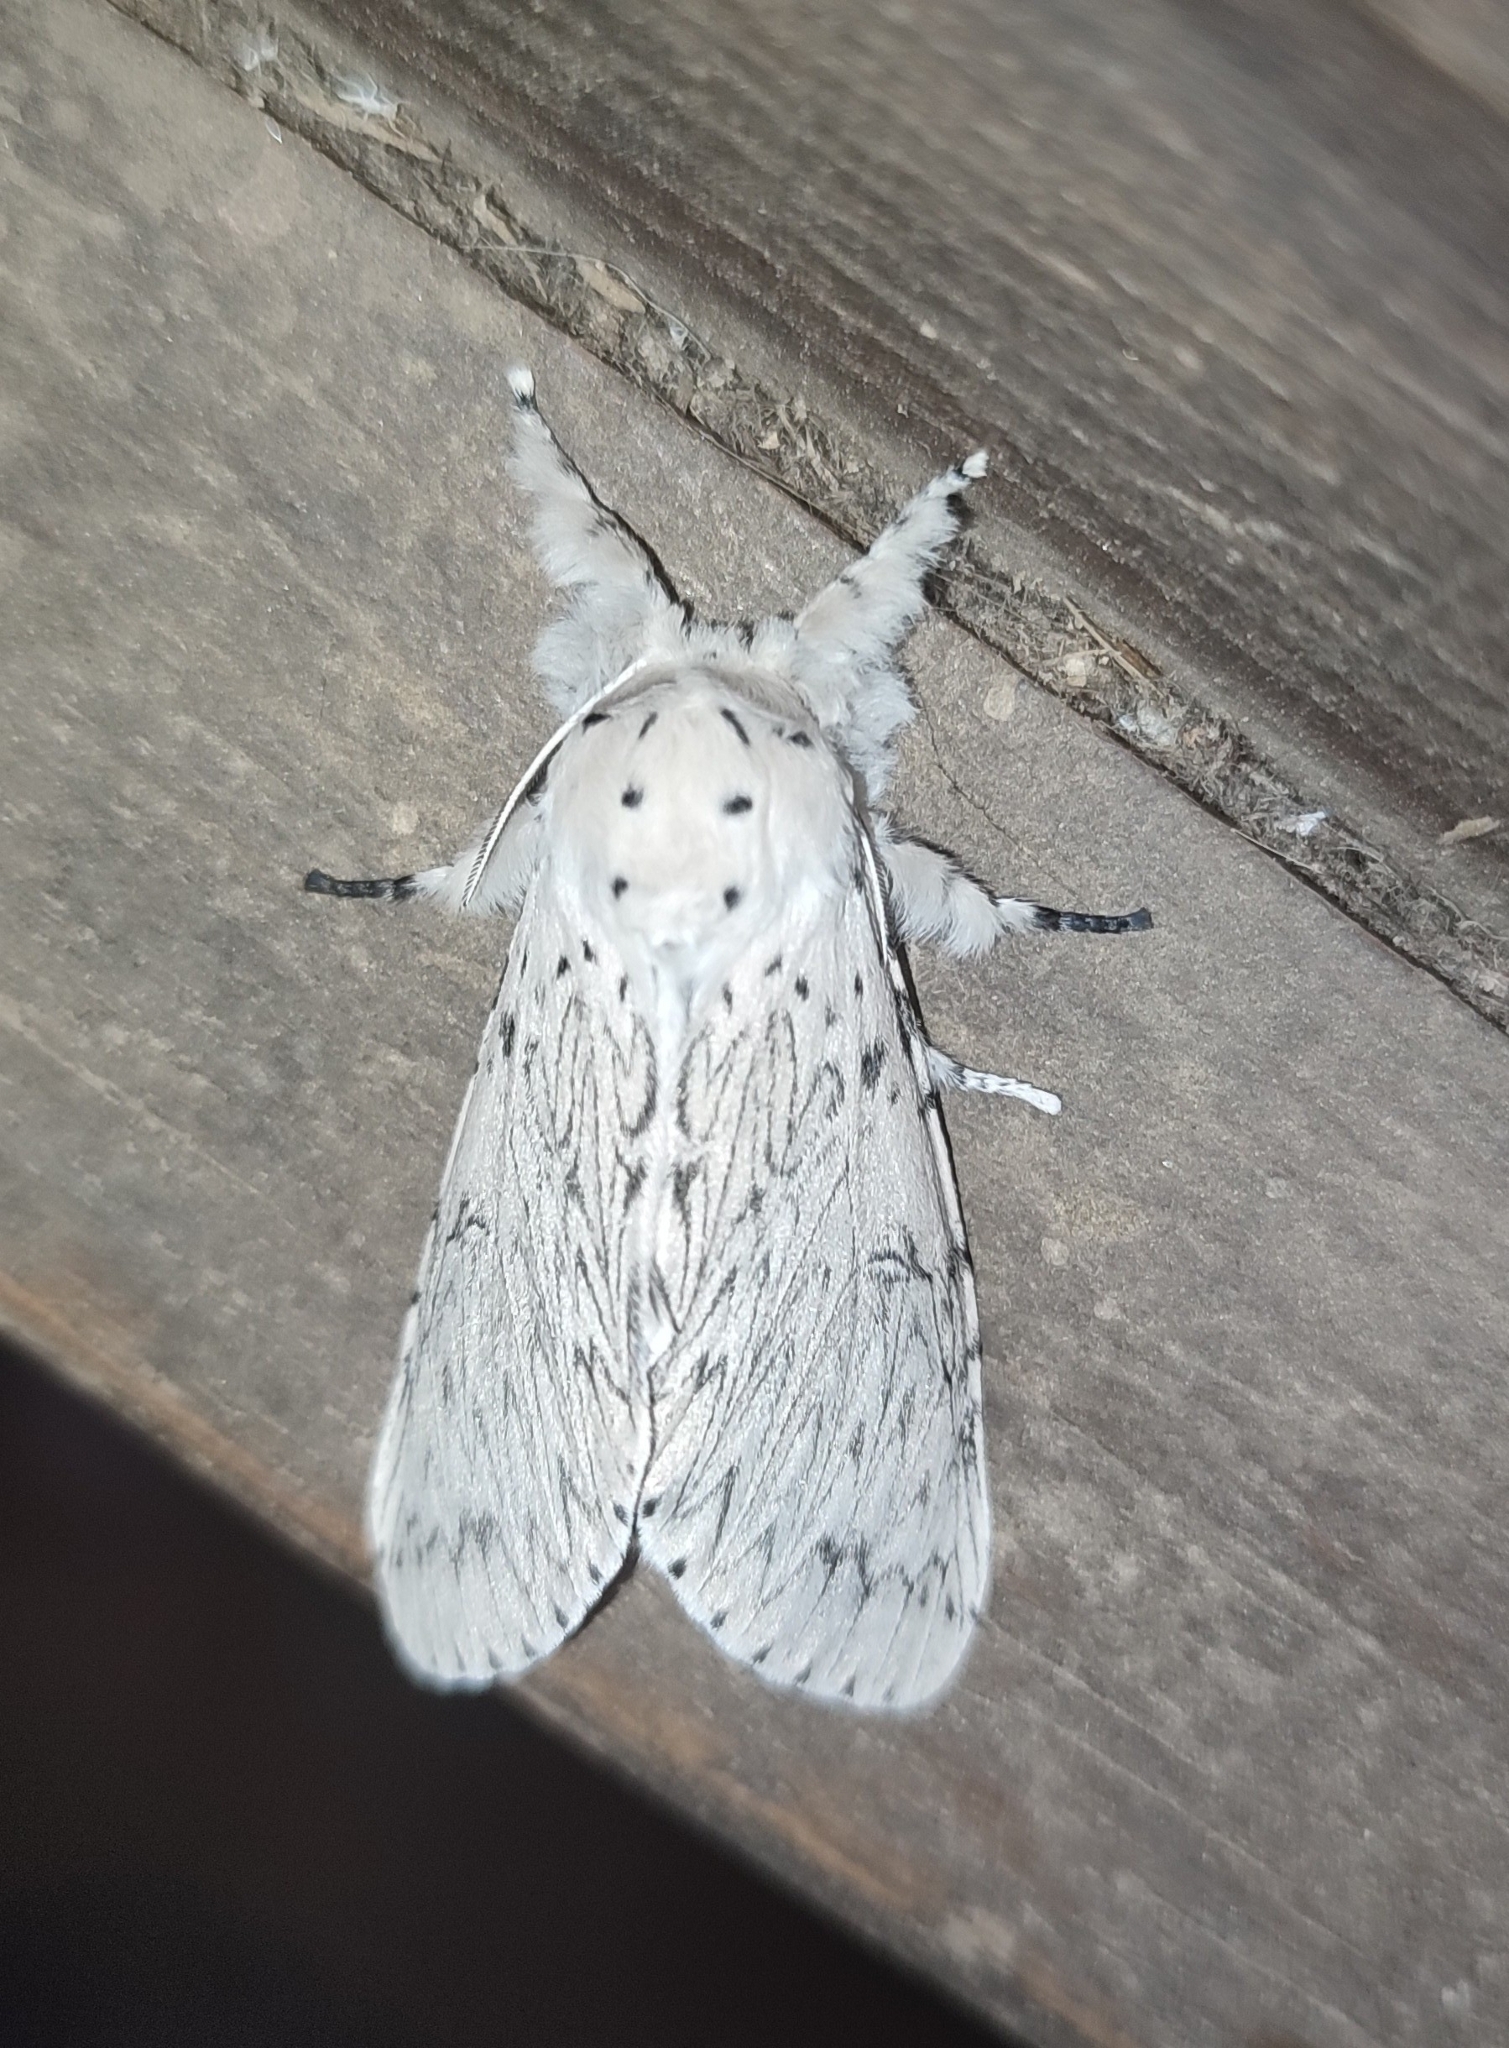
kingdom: Animalia
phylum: Arthropoda
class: Insecta
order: Lepidoptera
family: Notodontidae
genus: Cerura
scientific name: Cerura erminea
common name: Lesser puss moth
